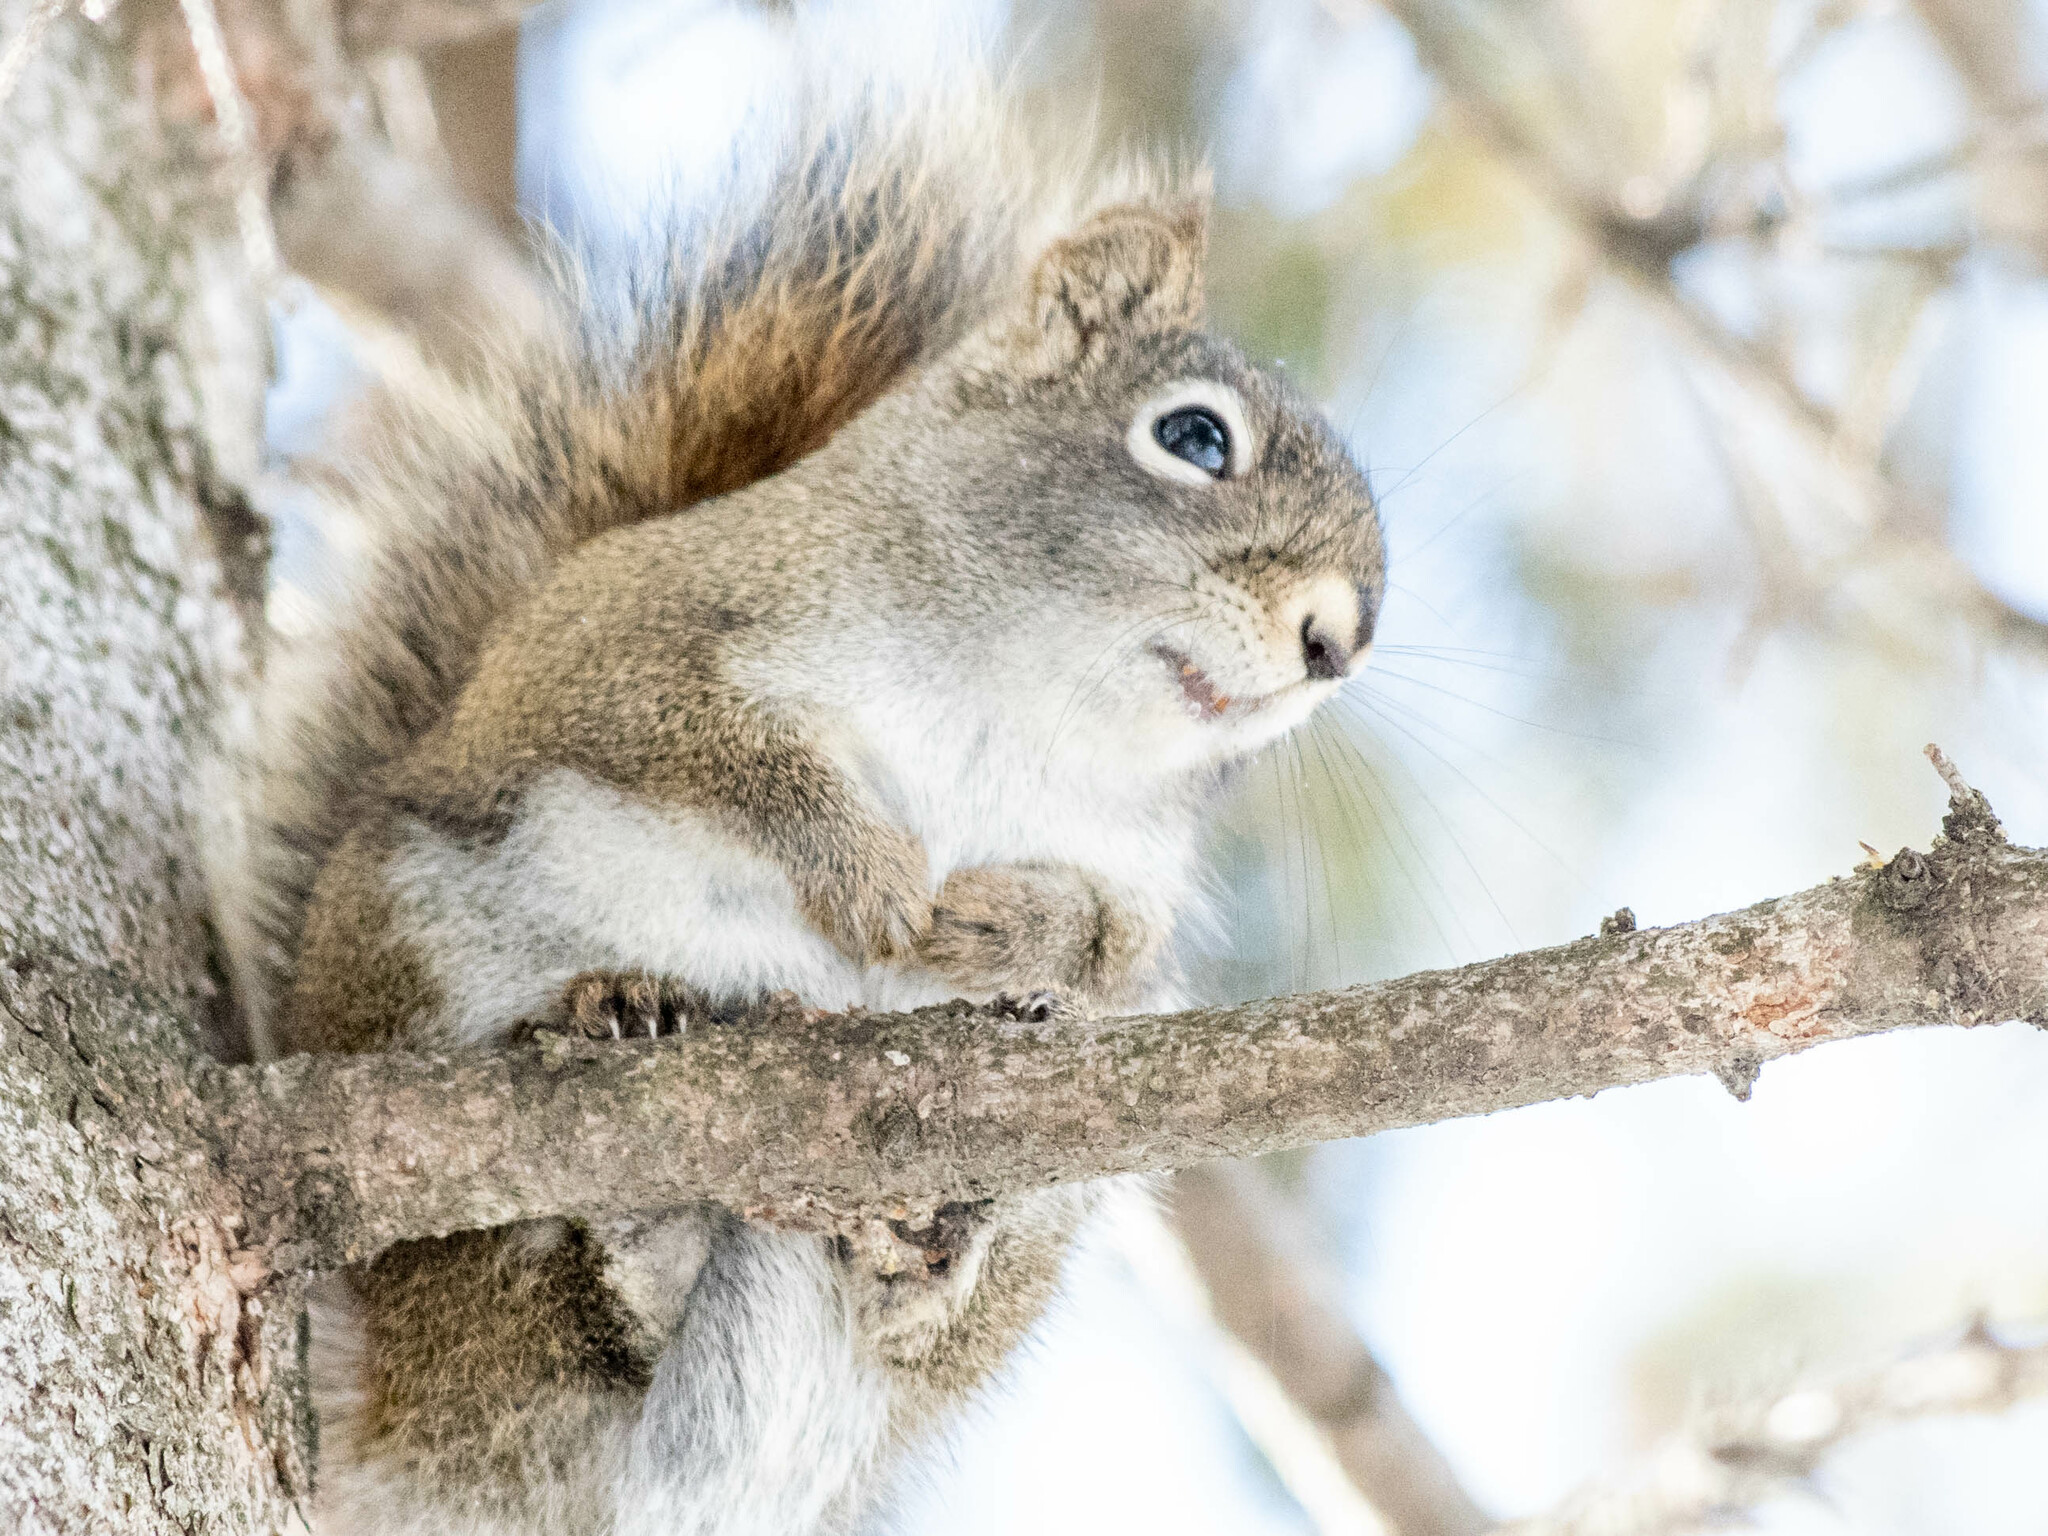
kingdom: Animalia
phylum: Chordata
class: Mammalia
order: Rodentia
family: Sciuridae
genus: Tamiasciurus
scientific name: Tamiasciurus hudsonicus
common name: Red squirrel
